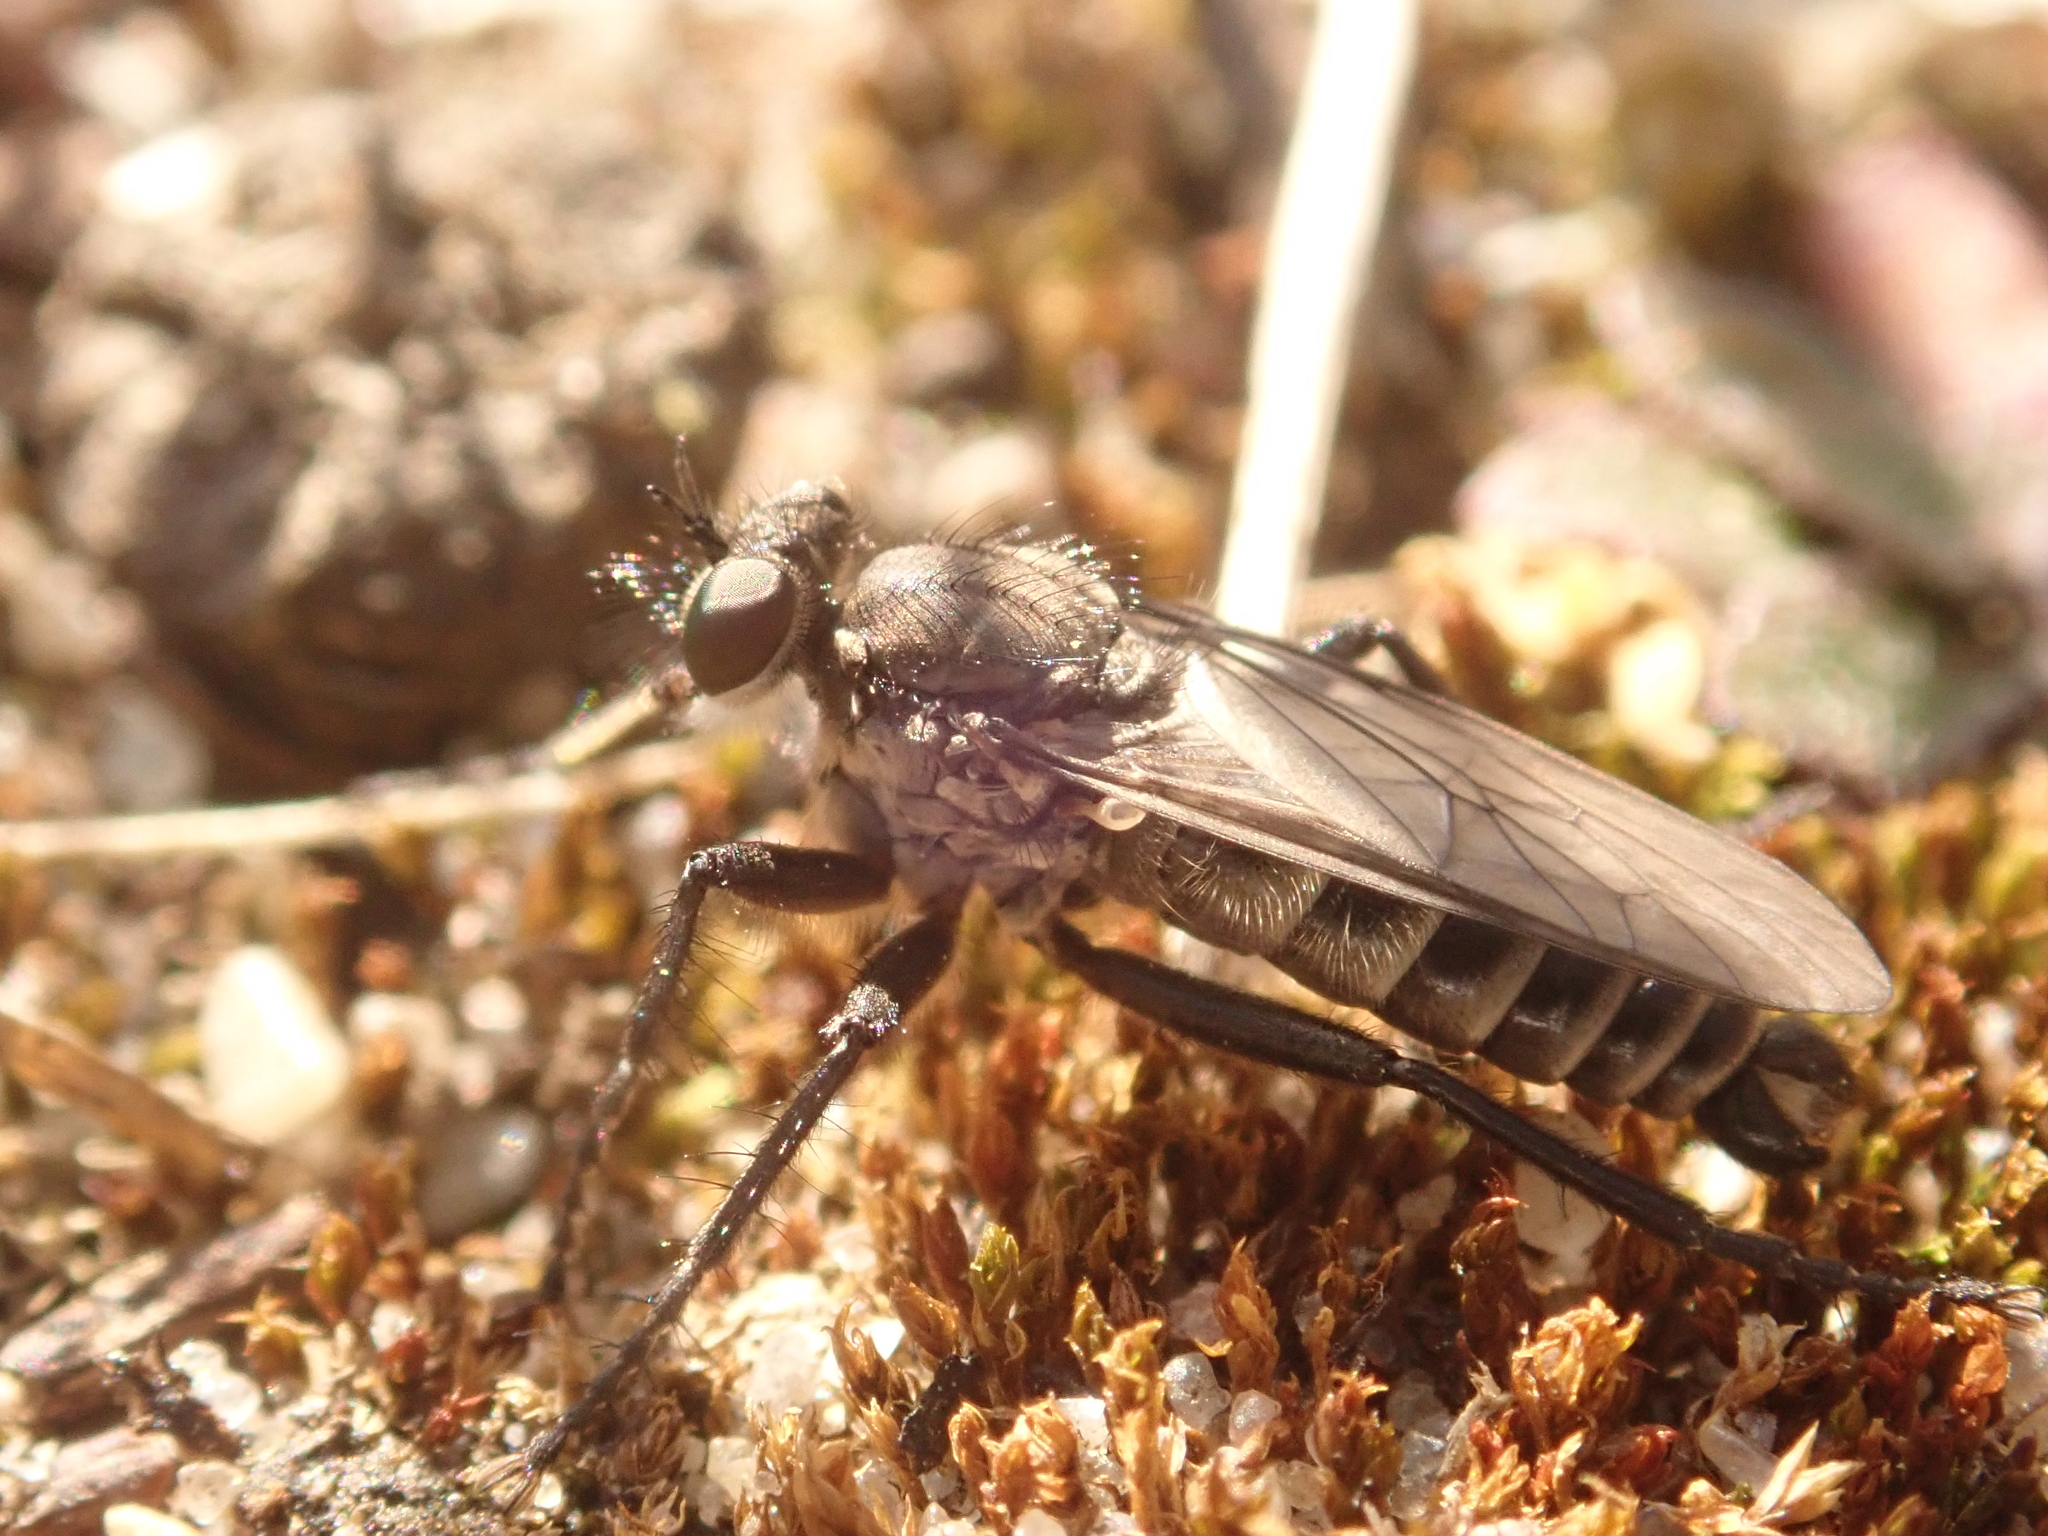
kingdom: Animalia
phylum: Arthropoda
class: Insecta
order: Diptera
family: Asilidae
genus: Lasiopogon
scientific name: Lasiopogon cinctus
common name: Spring heath robberfly
